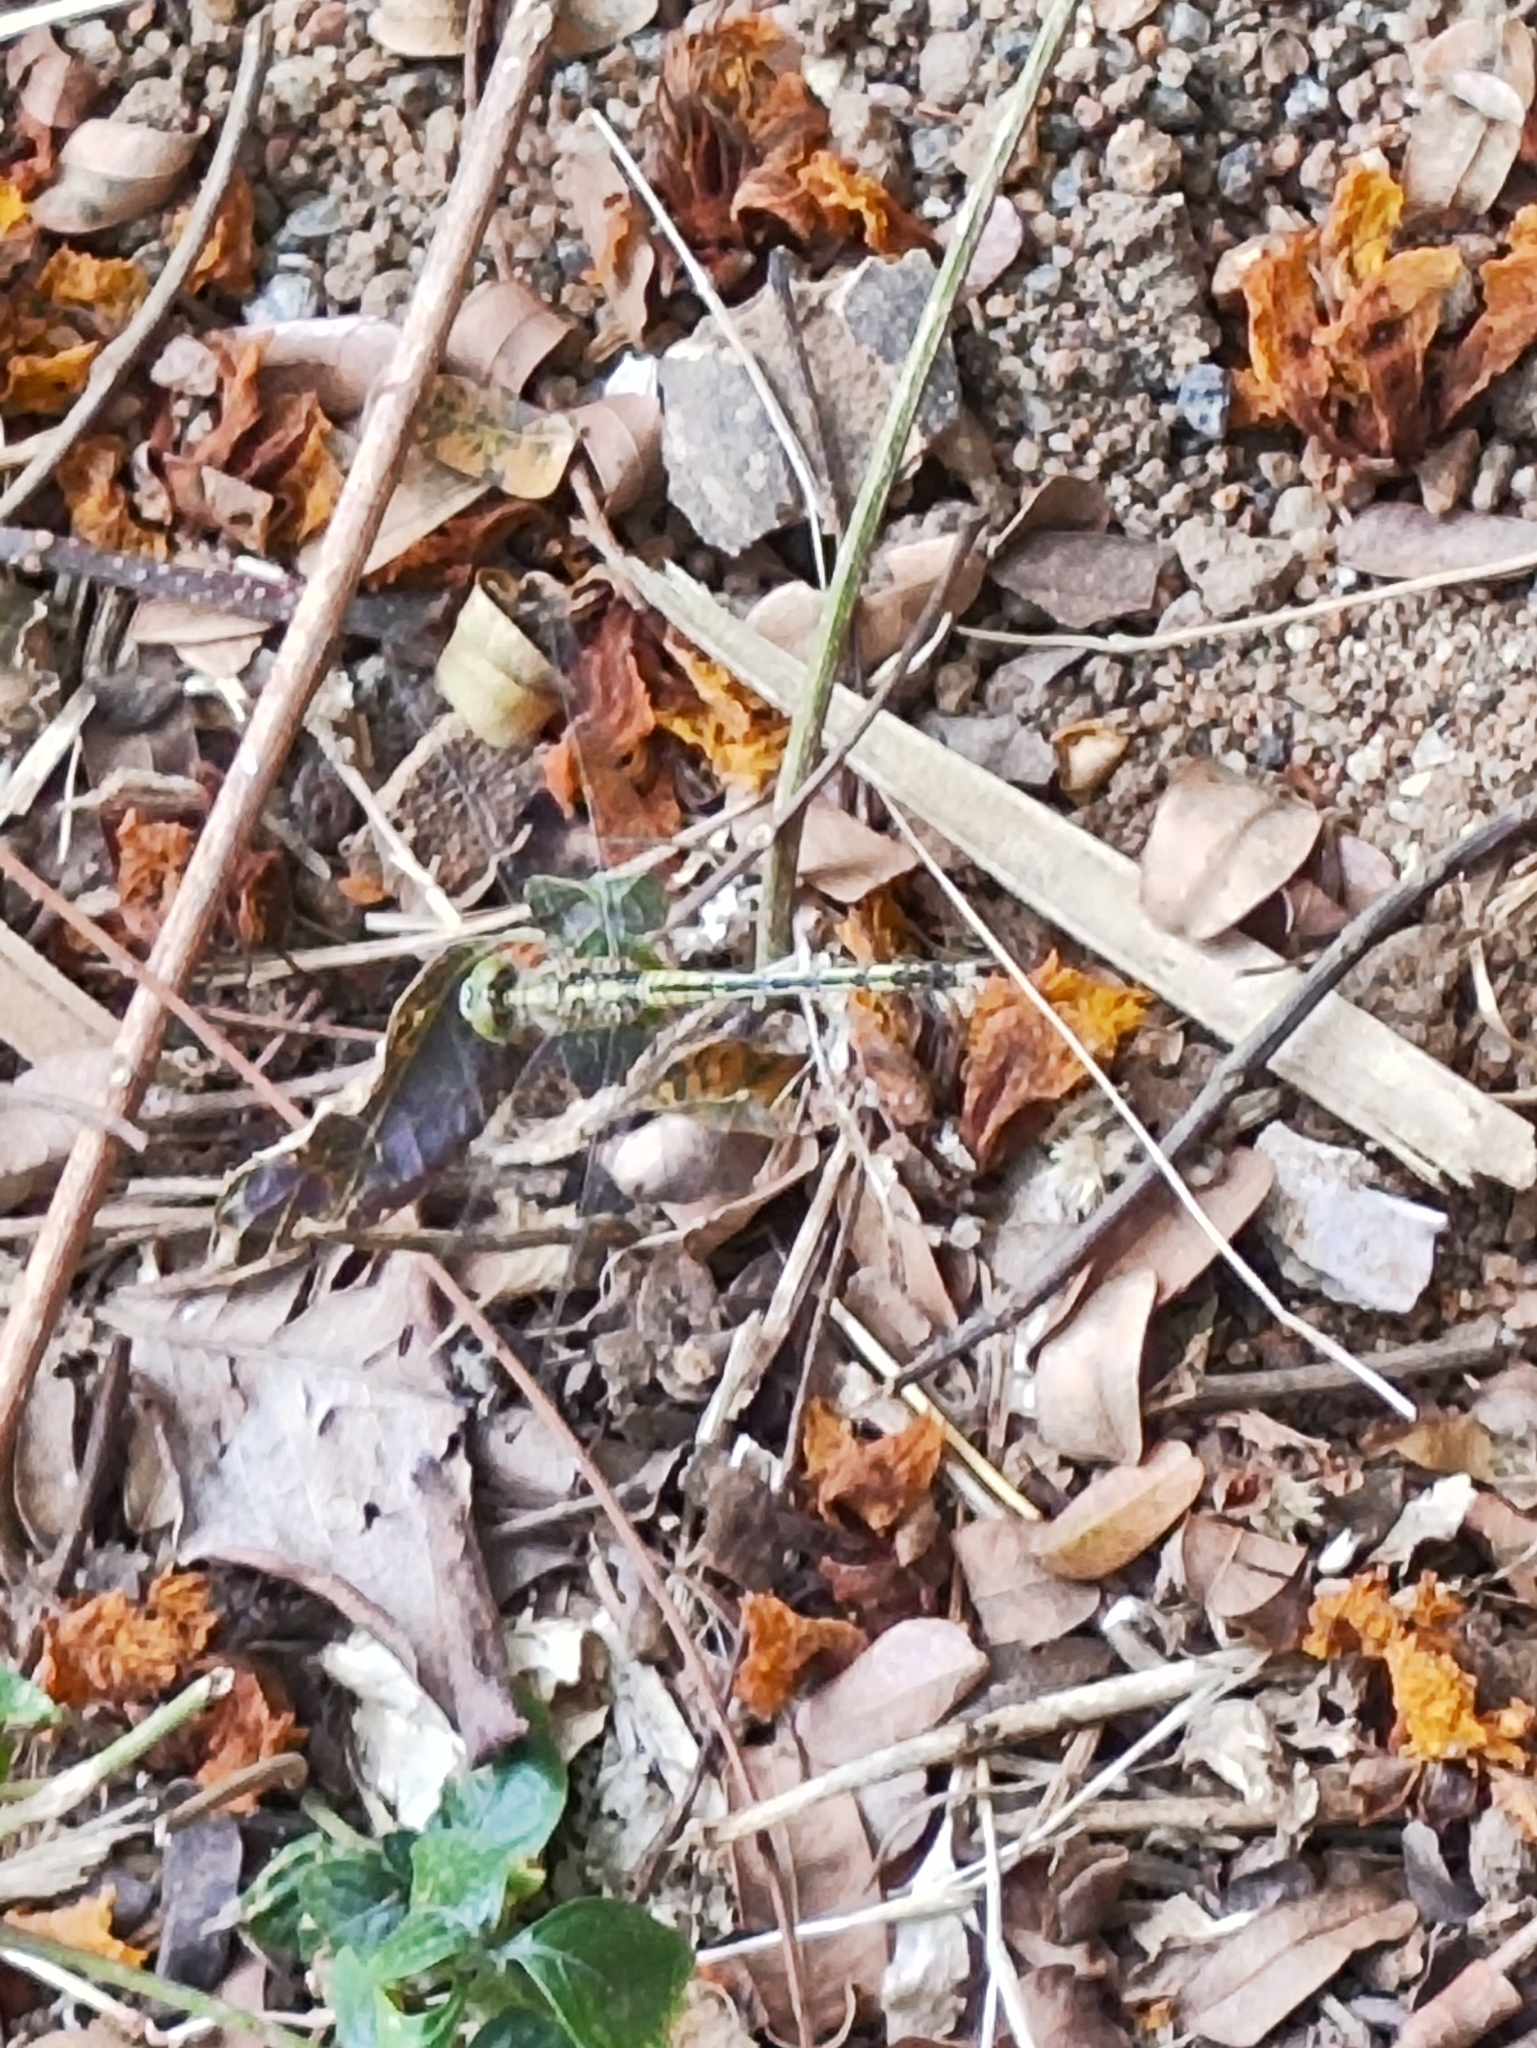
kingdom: Animalia
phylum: Arthropoda
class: Insecta
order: Odonata
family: Libellulidae
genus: Diplacodes
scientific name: Diplacodes trivialis
